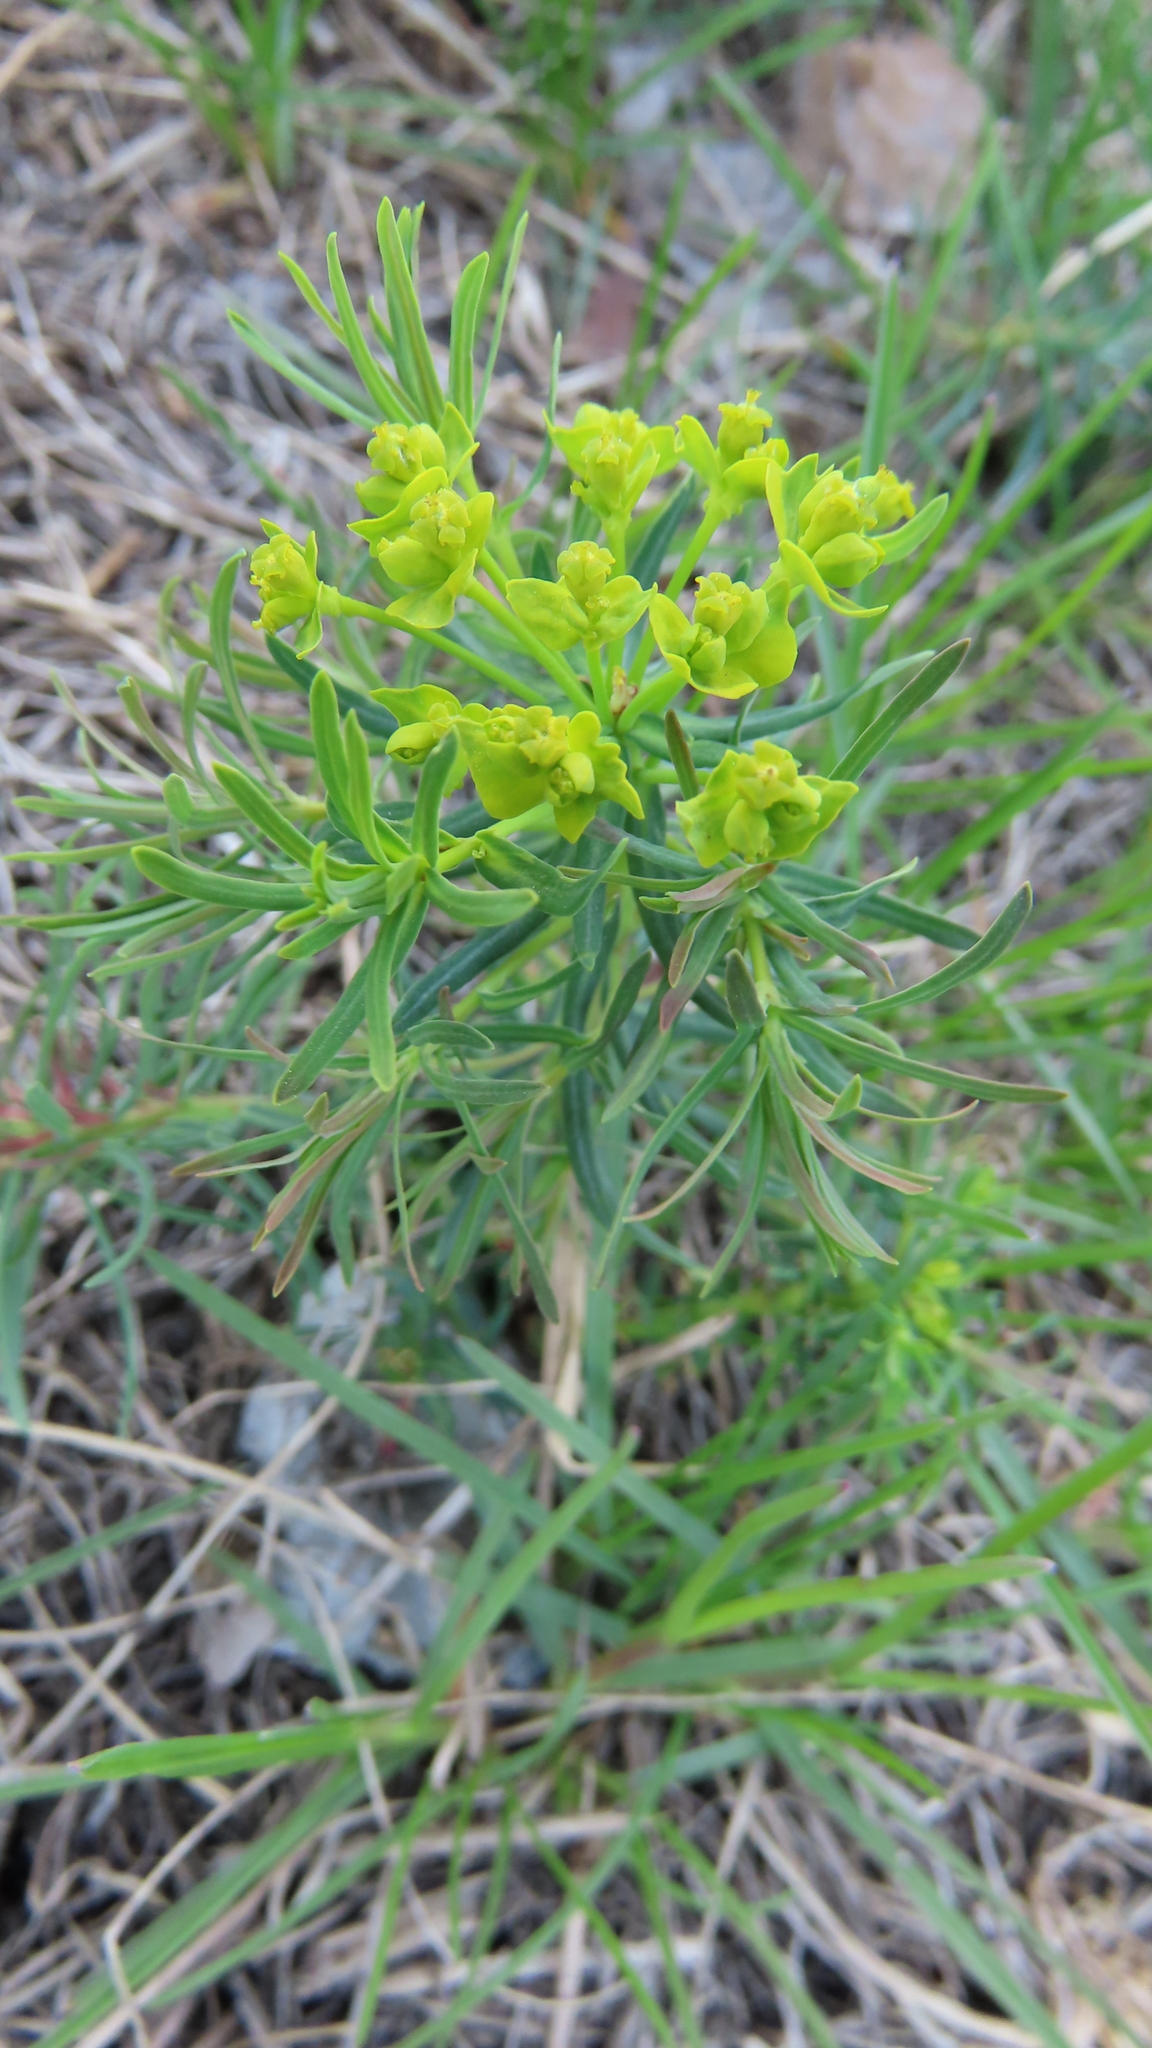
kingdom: Plantae
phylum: Tracheophyta
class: Magnoliopsida
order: Malpighiales
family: Euphorbiaceae
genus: Euphorbia
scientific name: Euphorbia virgata
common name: Leafy spurge
